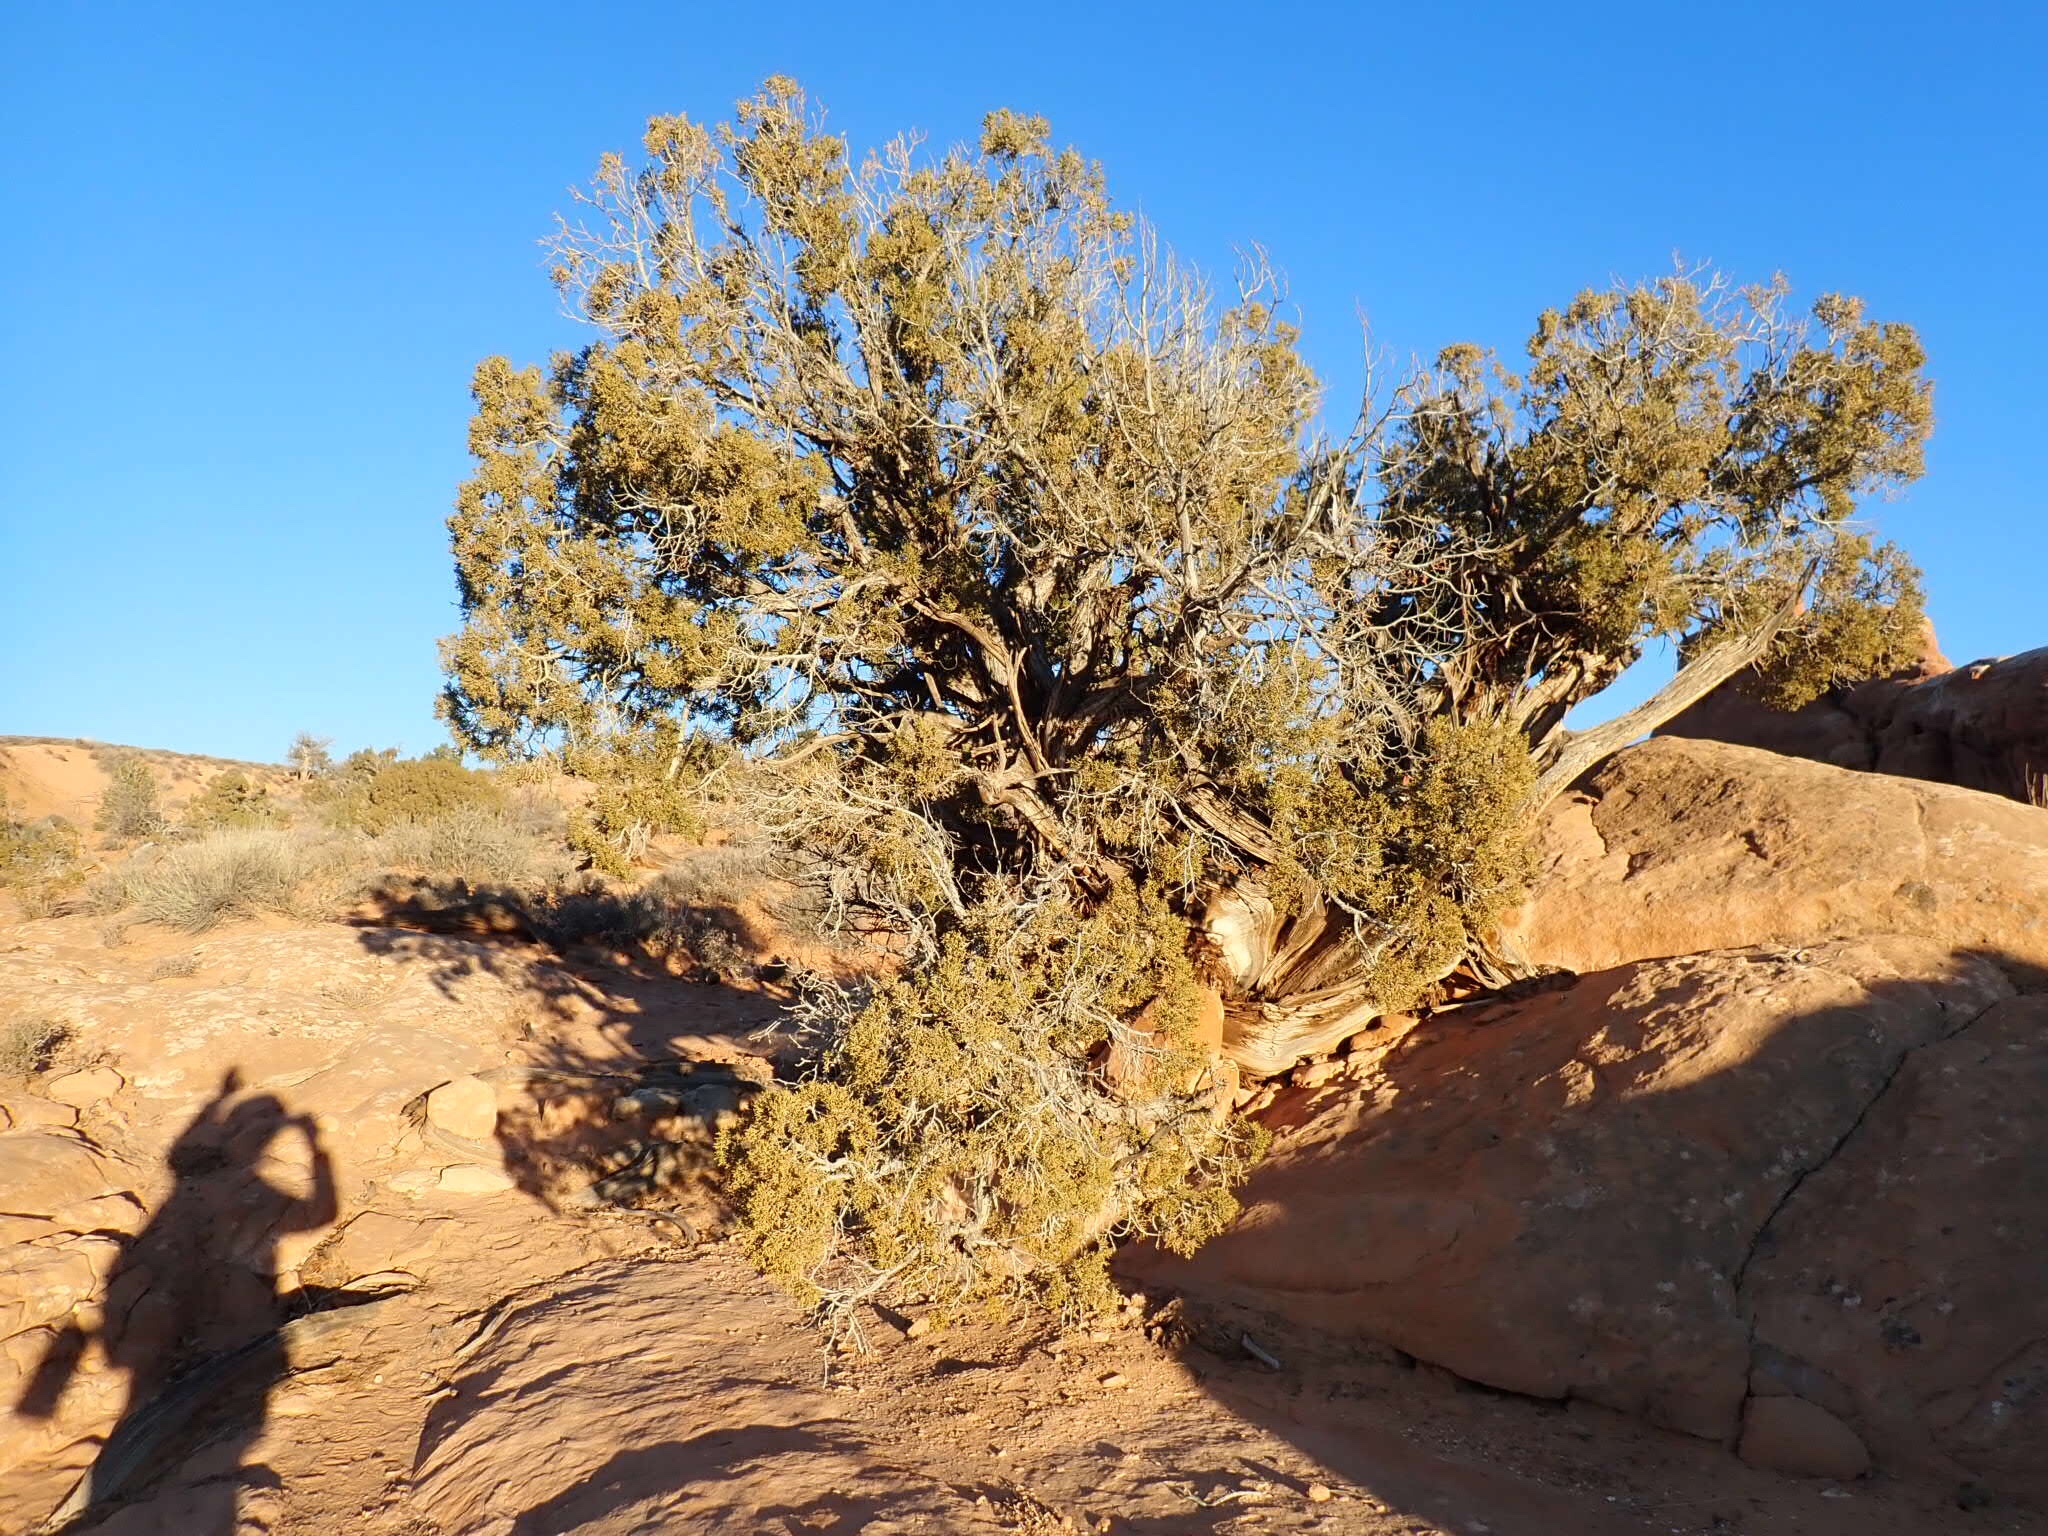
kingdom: Plantae
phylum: Tracheophyta
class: Pinopsida
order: Pinales
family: Cupressaceae
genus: Juniperus
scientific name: Juniperus osteosperma
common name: Utah juniper
